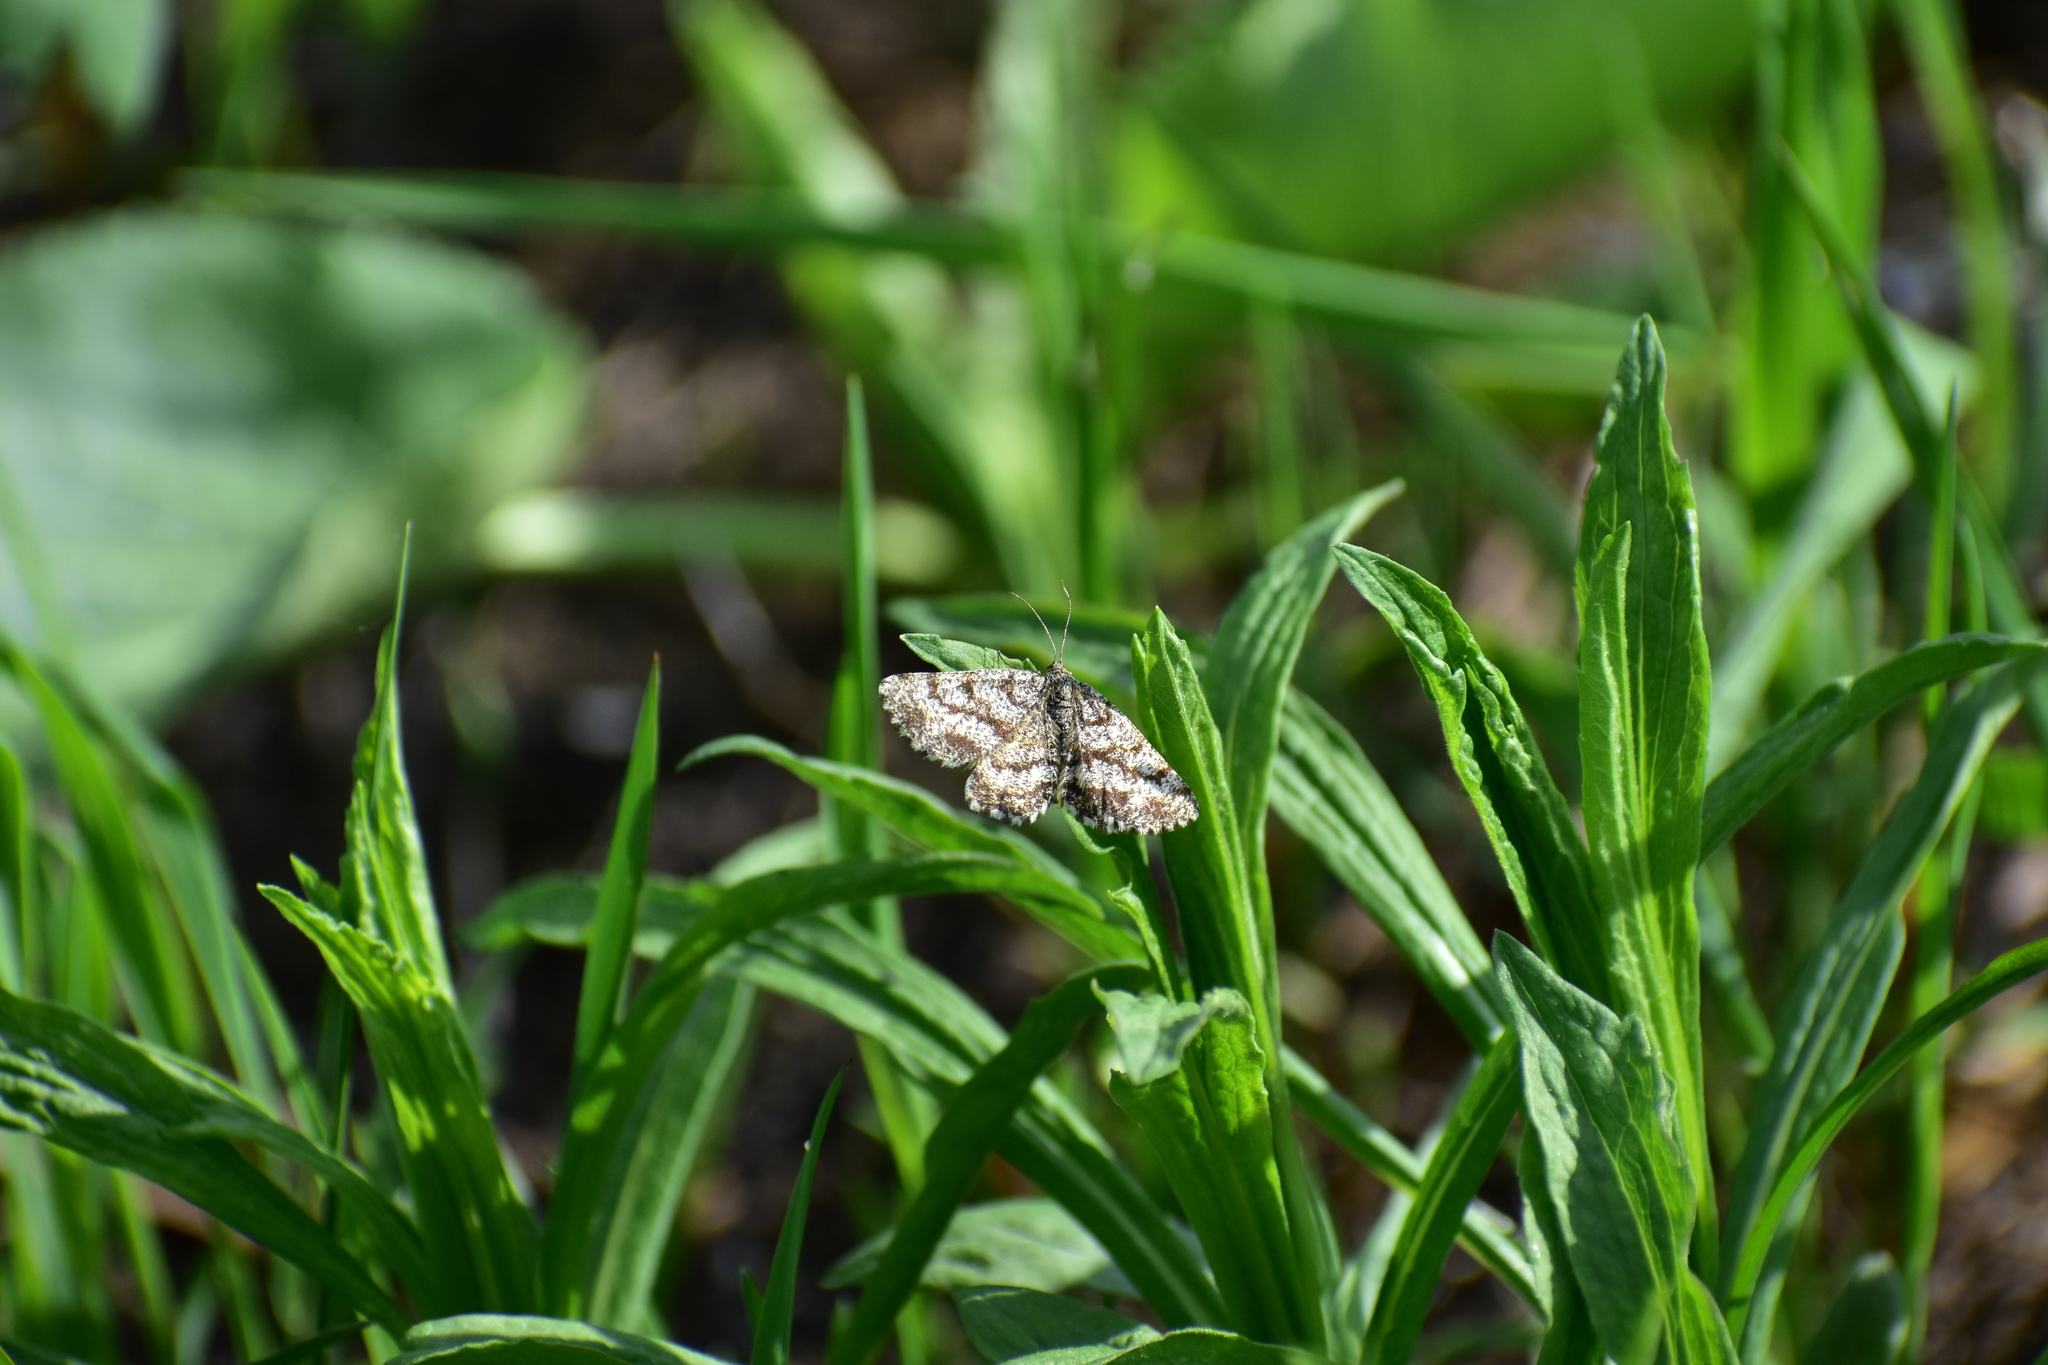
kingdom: Animalia
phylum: Arthropoda
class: Insecta
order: Lepidoptera
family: Geometridae
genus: Ematurga
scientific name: Ematurga atomaria
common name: Common heath
